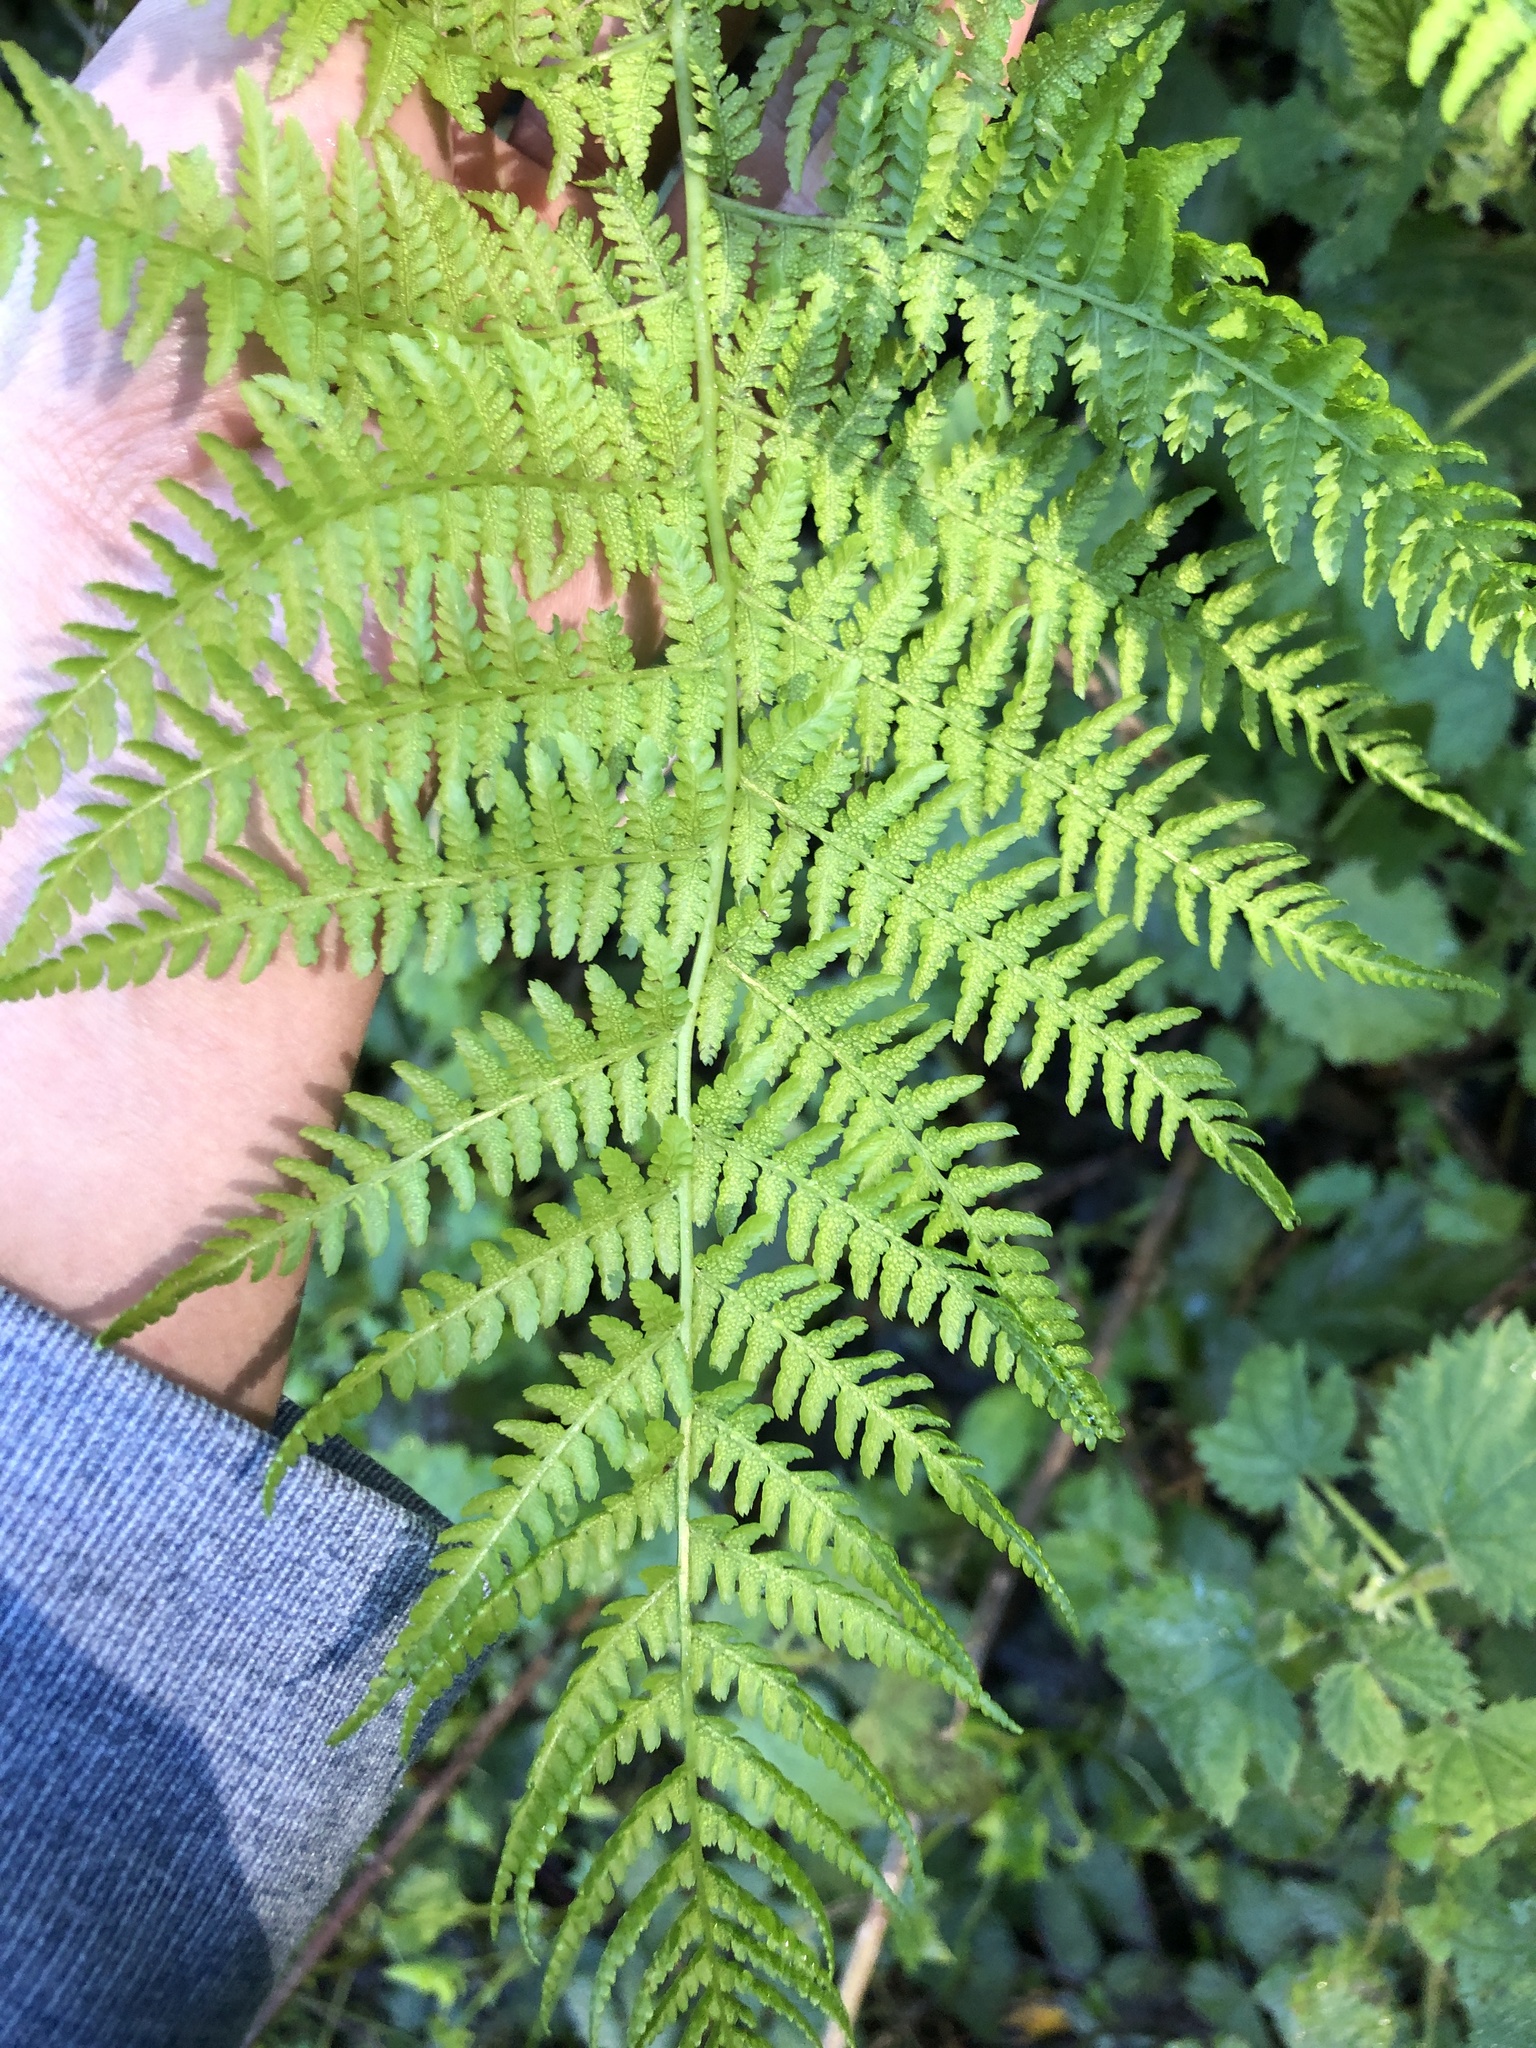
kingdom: Plantae
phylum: Tracheophyta
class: Polypodiopsida
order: Polypodiales
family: Athyriaceae
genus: Athyrium
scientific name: Athyrium filix-femina
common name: Lady fern
